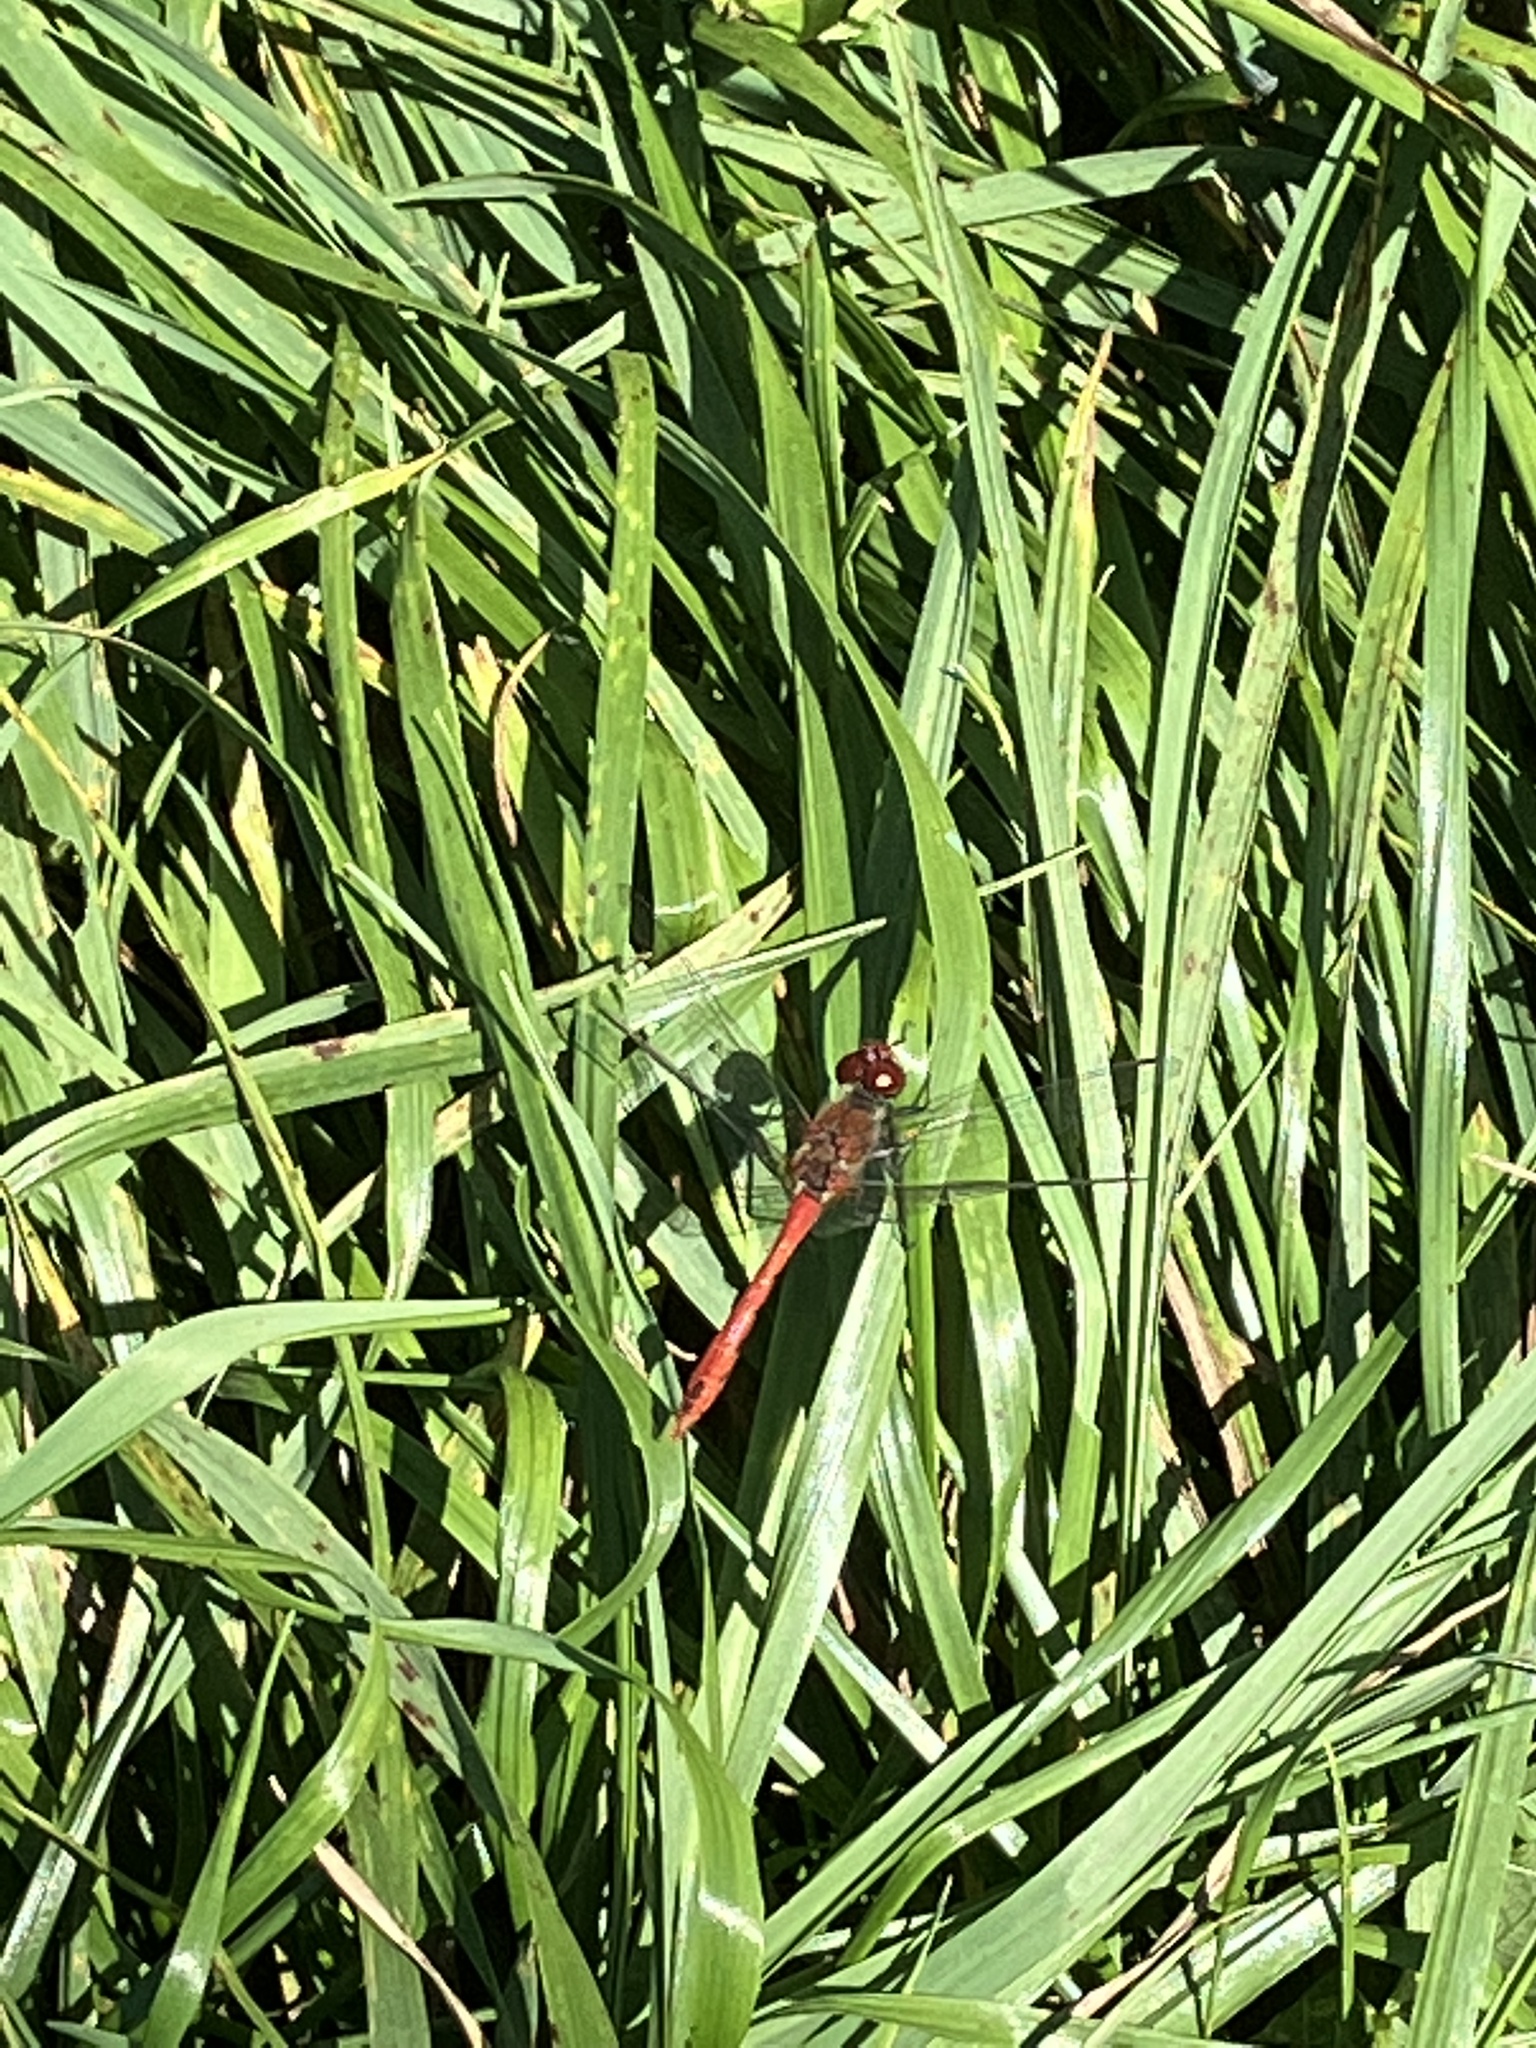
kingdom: Animalia
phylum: Arthropoda
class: Insecta
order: Odonata
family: Libellulidae
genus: Sympetrum
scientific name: Sympetrum sanguineum
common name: Ruddy darter
